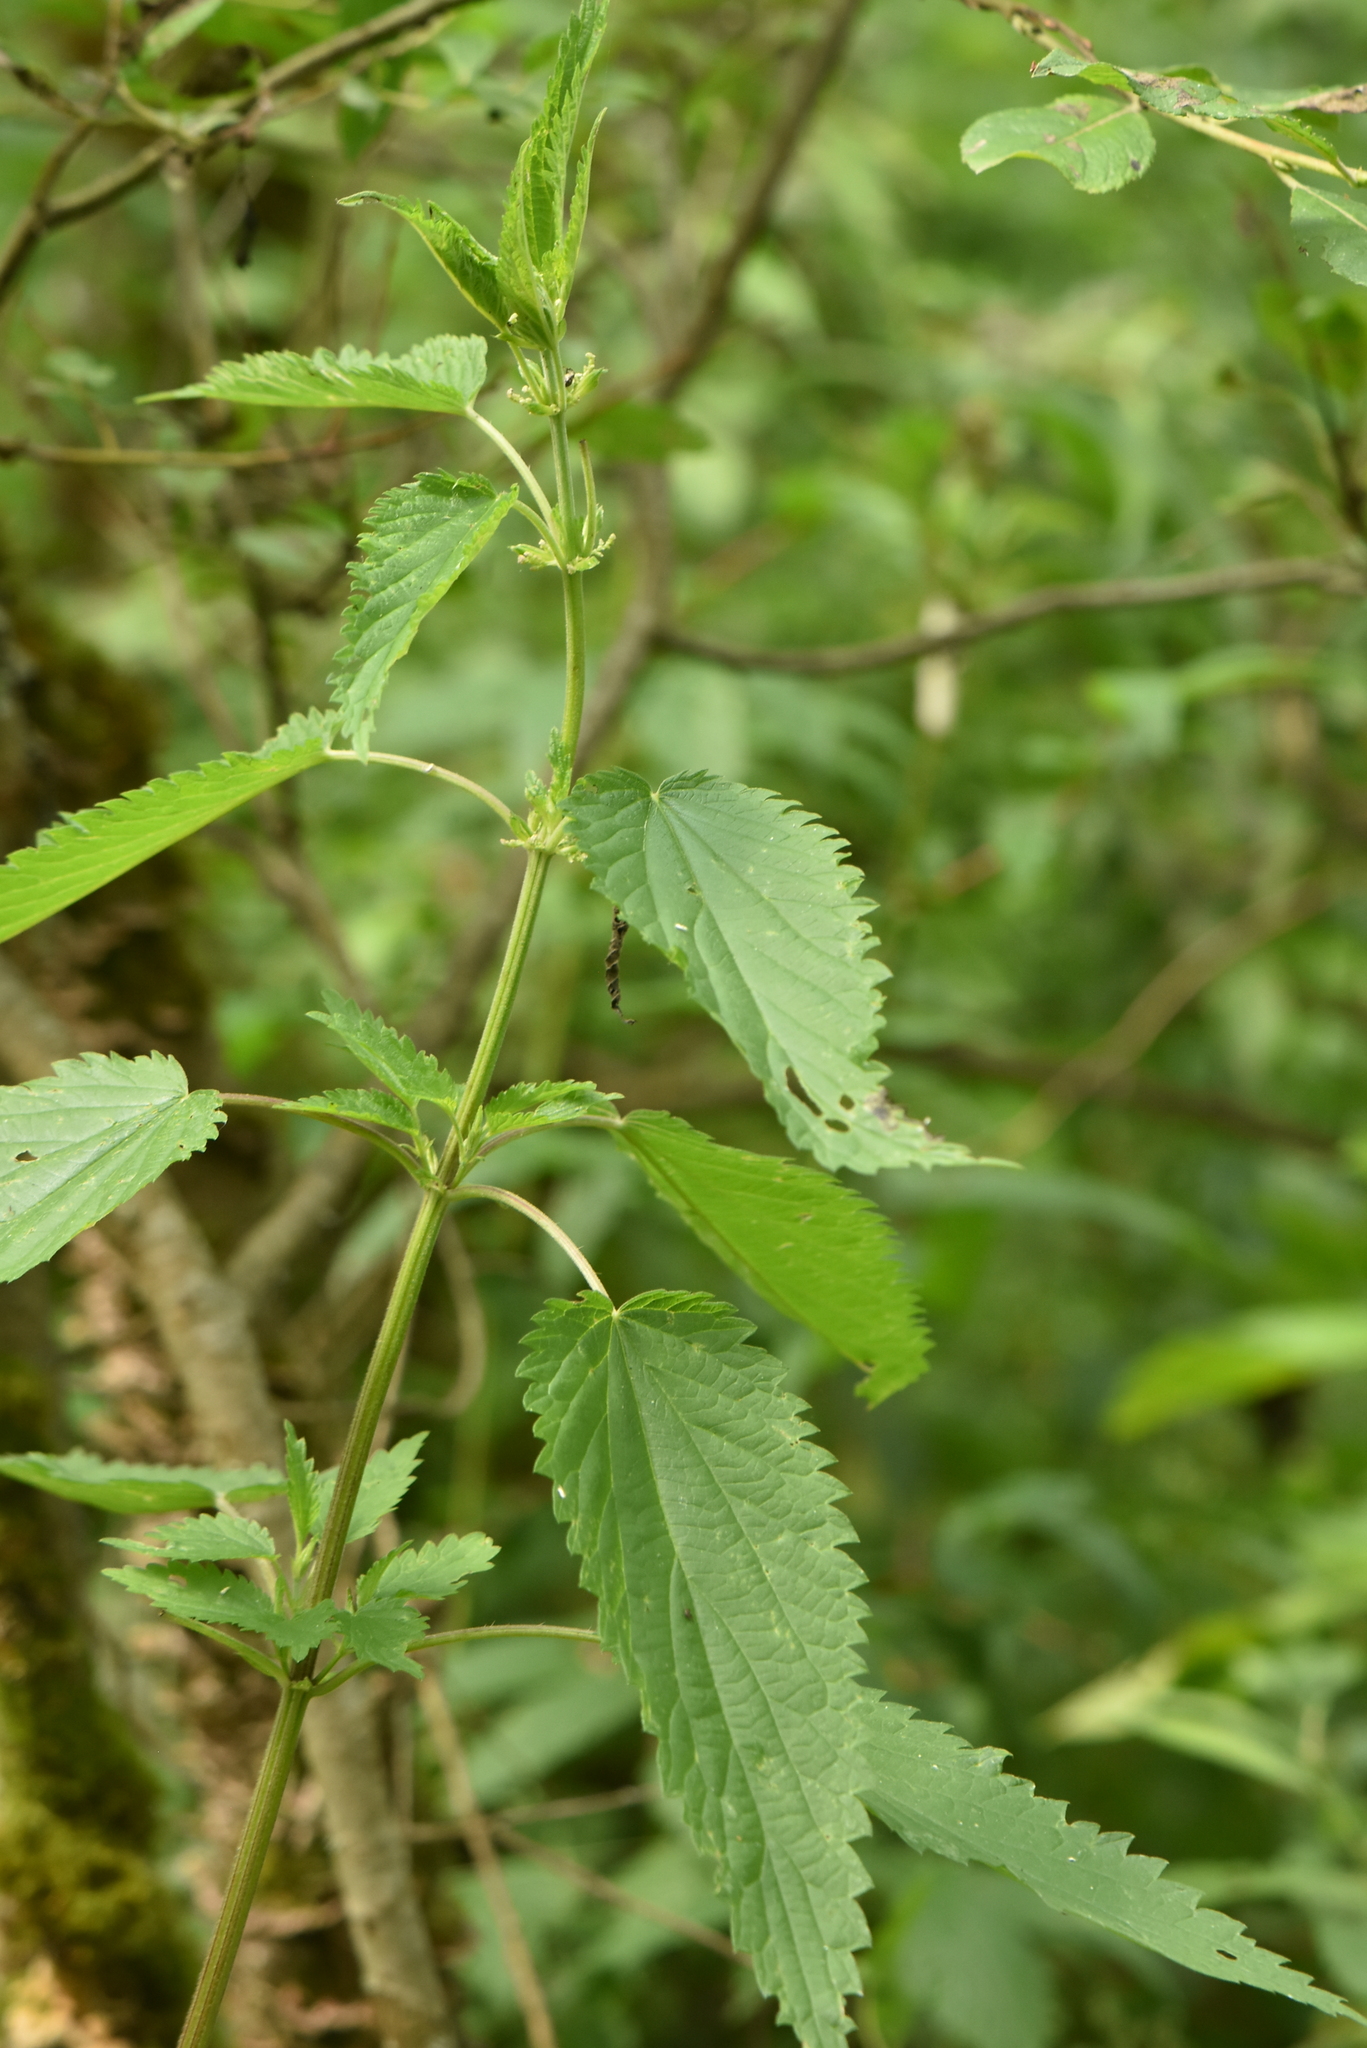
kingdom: Plantae
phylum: Tracheophyta
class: Magnoliopsida
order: Rosales
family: Urticaceae
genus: Urtica
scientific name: Urtica dioica
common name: Common nettle
